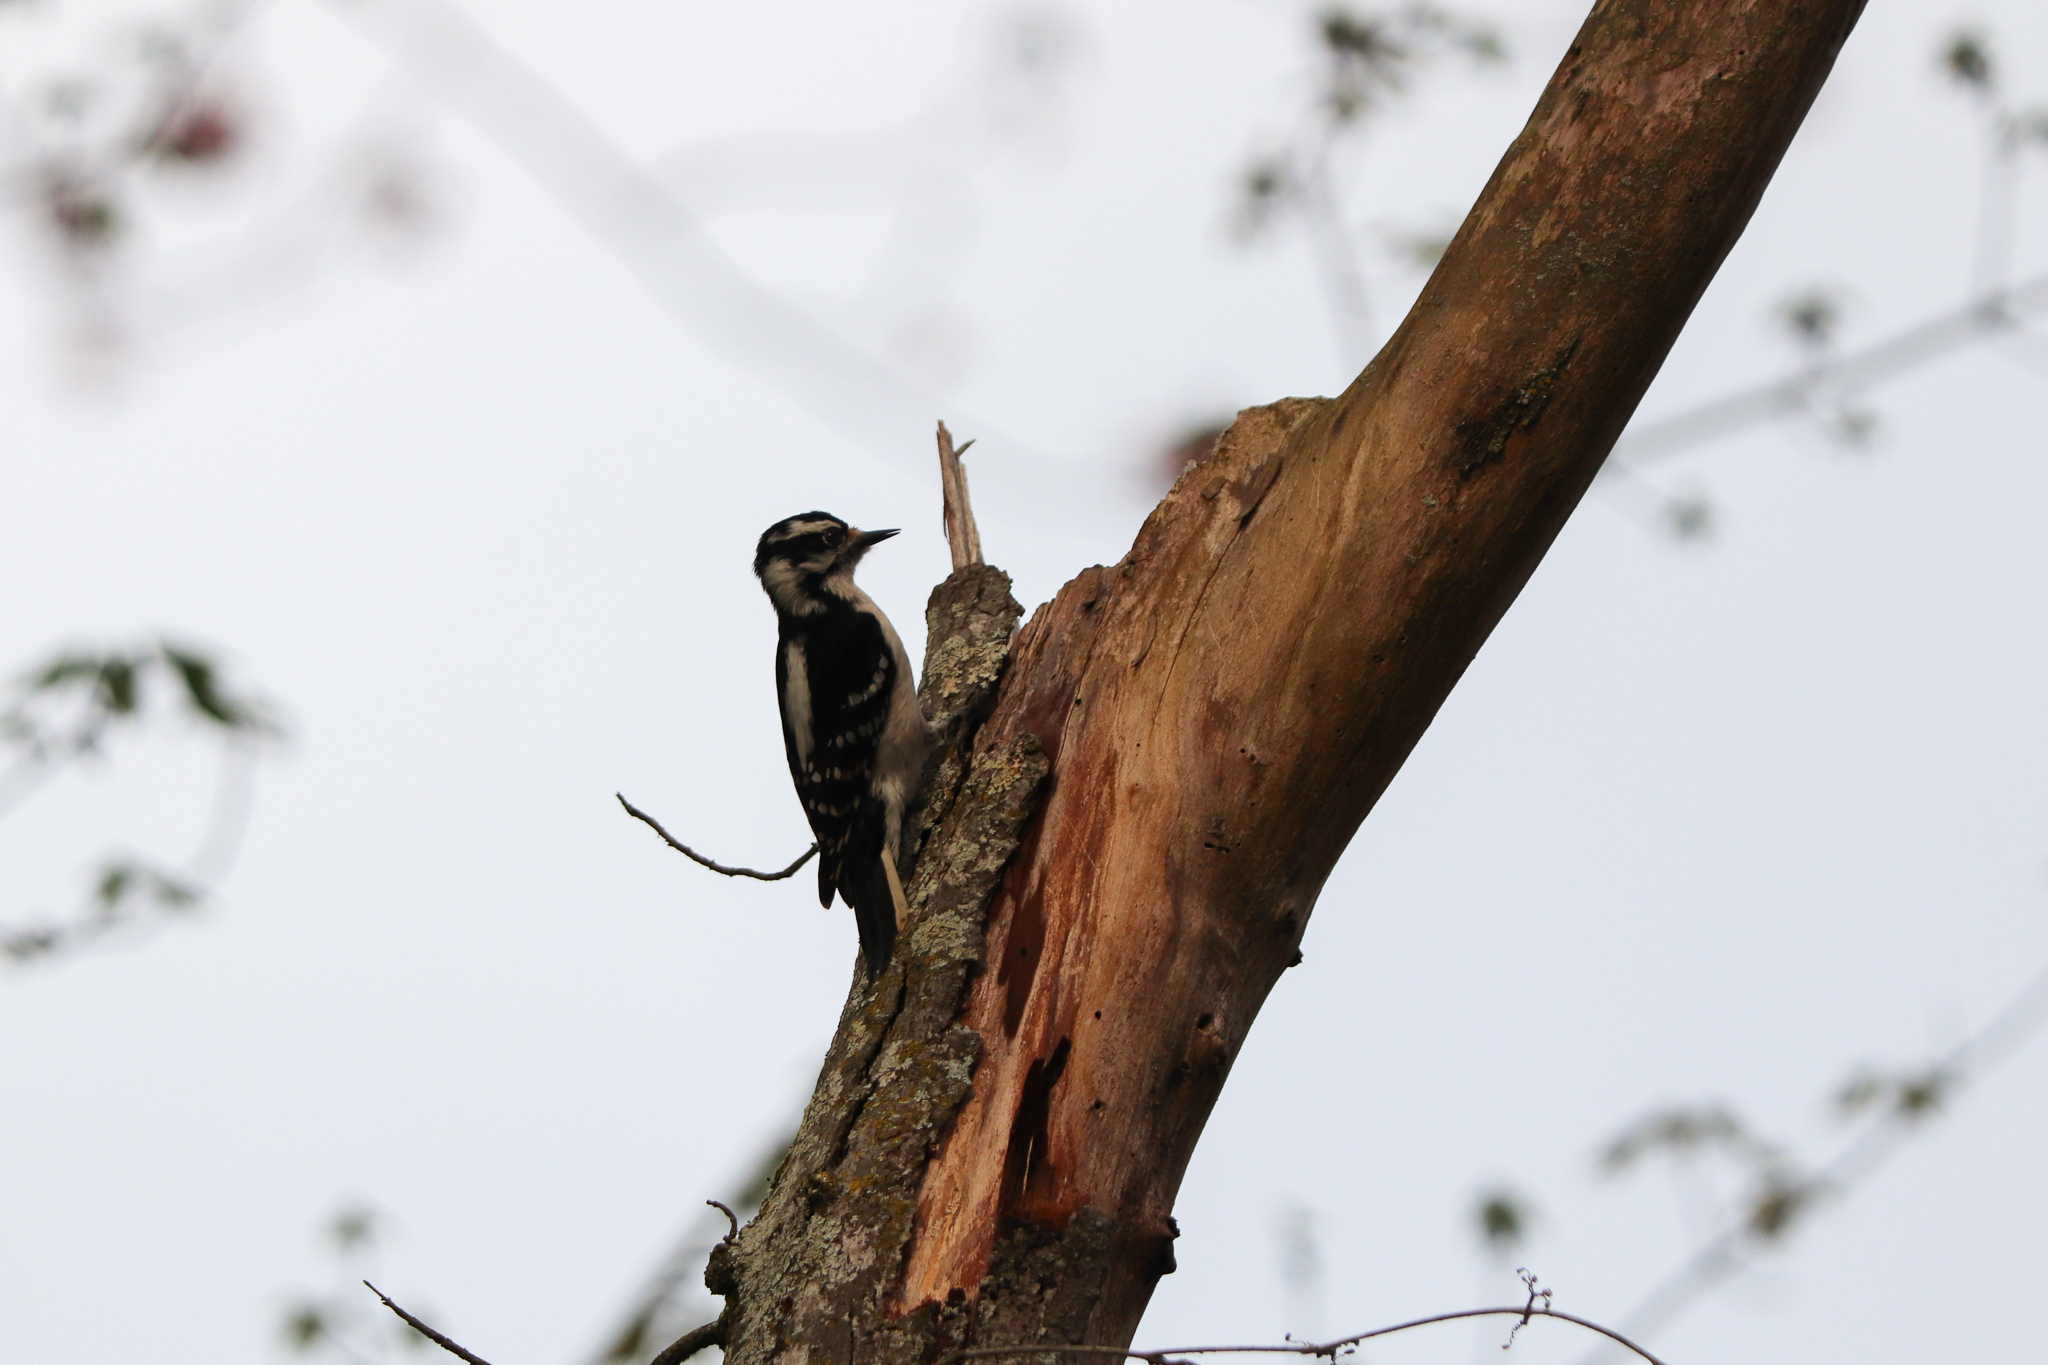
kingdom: Animalia
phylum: Chordata
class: Aves
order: Piciformes
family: Picidae
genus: Dryobates
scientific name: Dryobates pubescens
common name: Downy woodpecker
